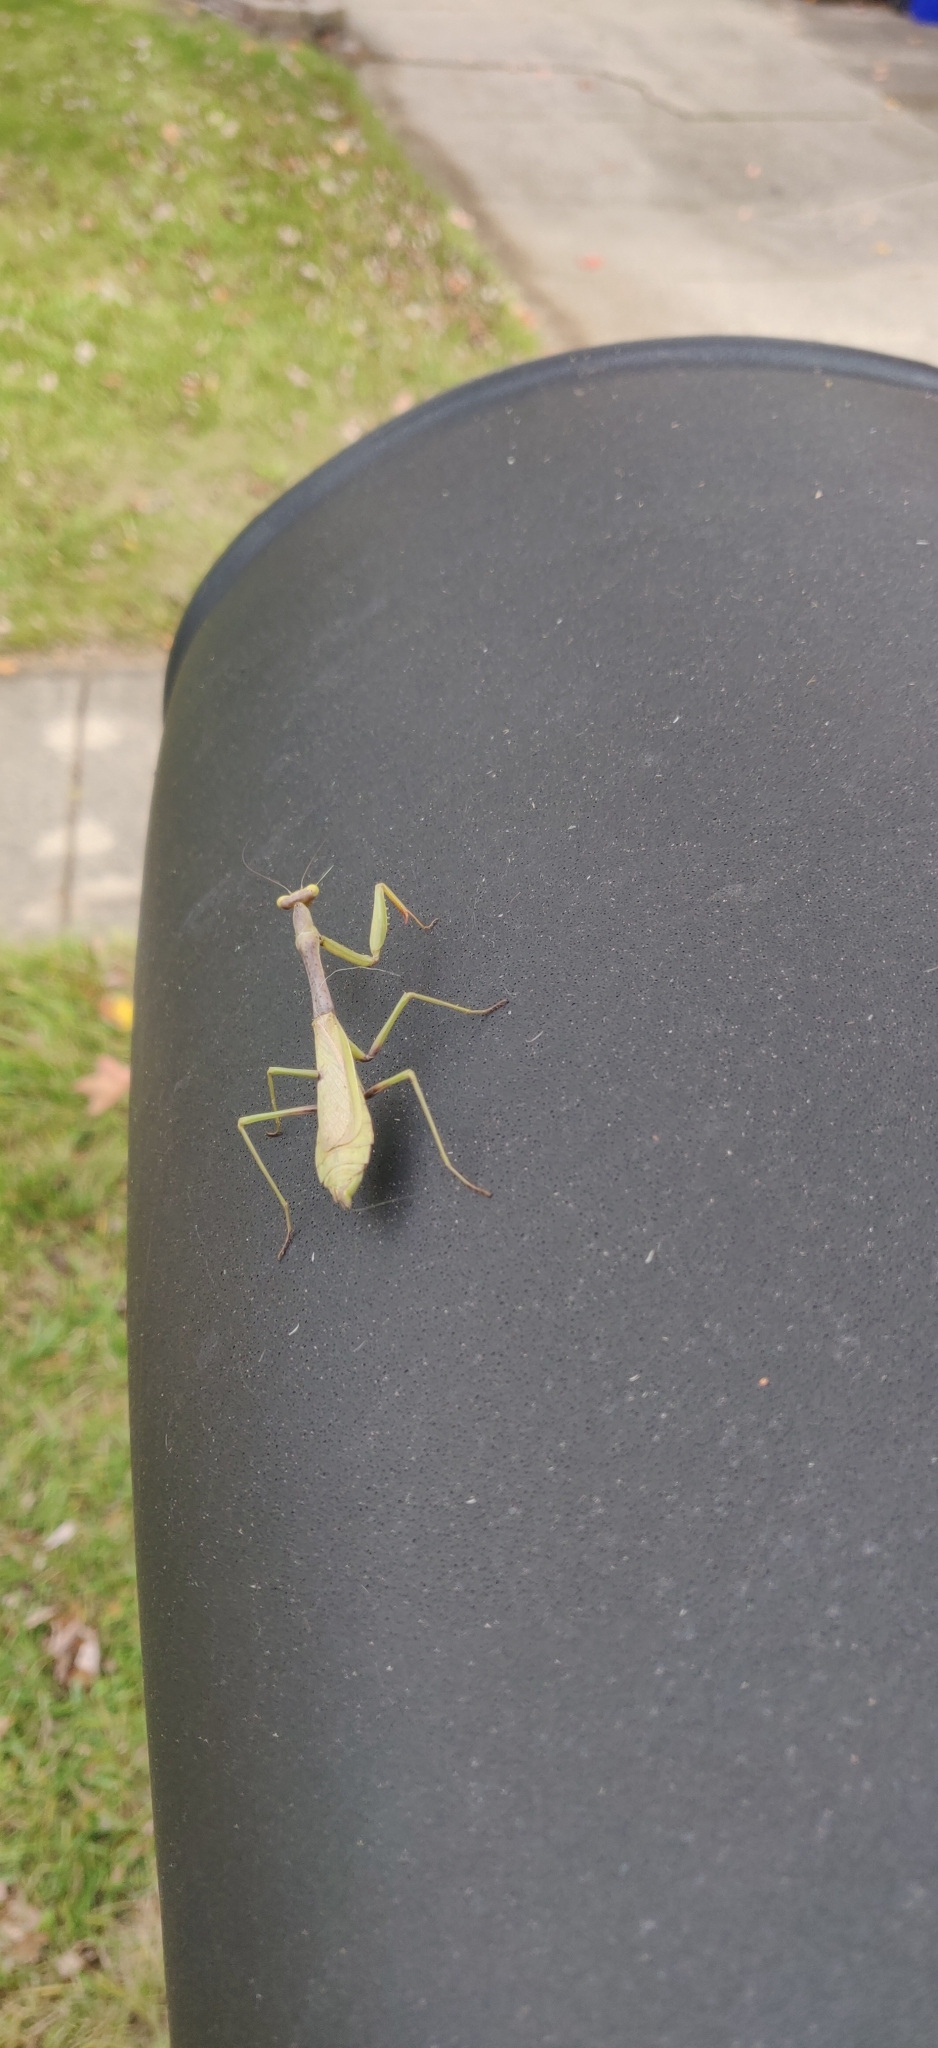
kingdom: Animalia
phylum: Arthropoda
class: Insecta
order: Mantodea
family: Mantidae
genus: Stagmomantis
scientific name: Stagmomantis carolina
